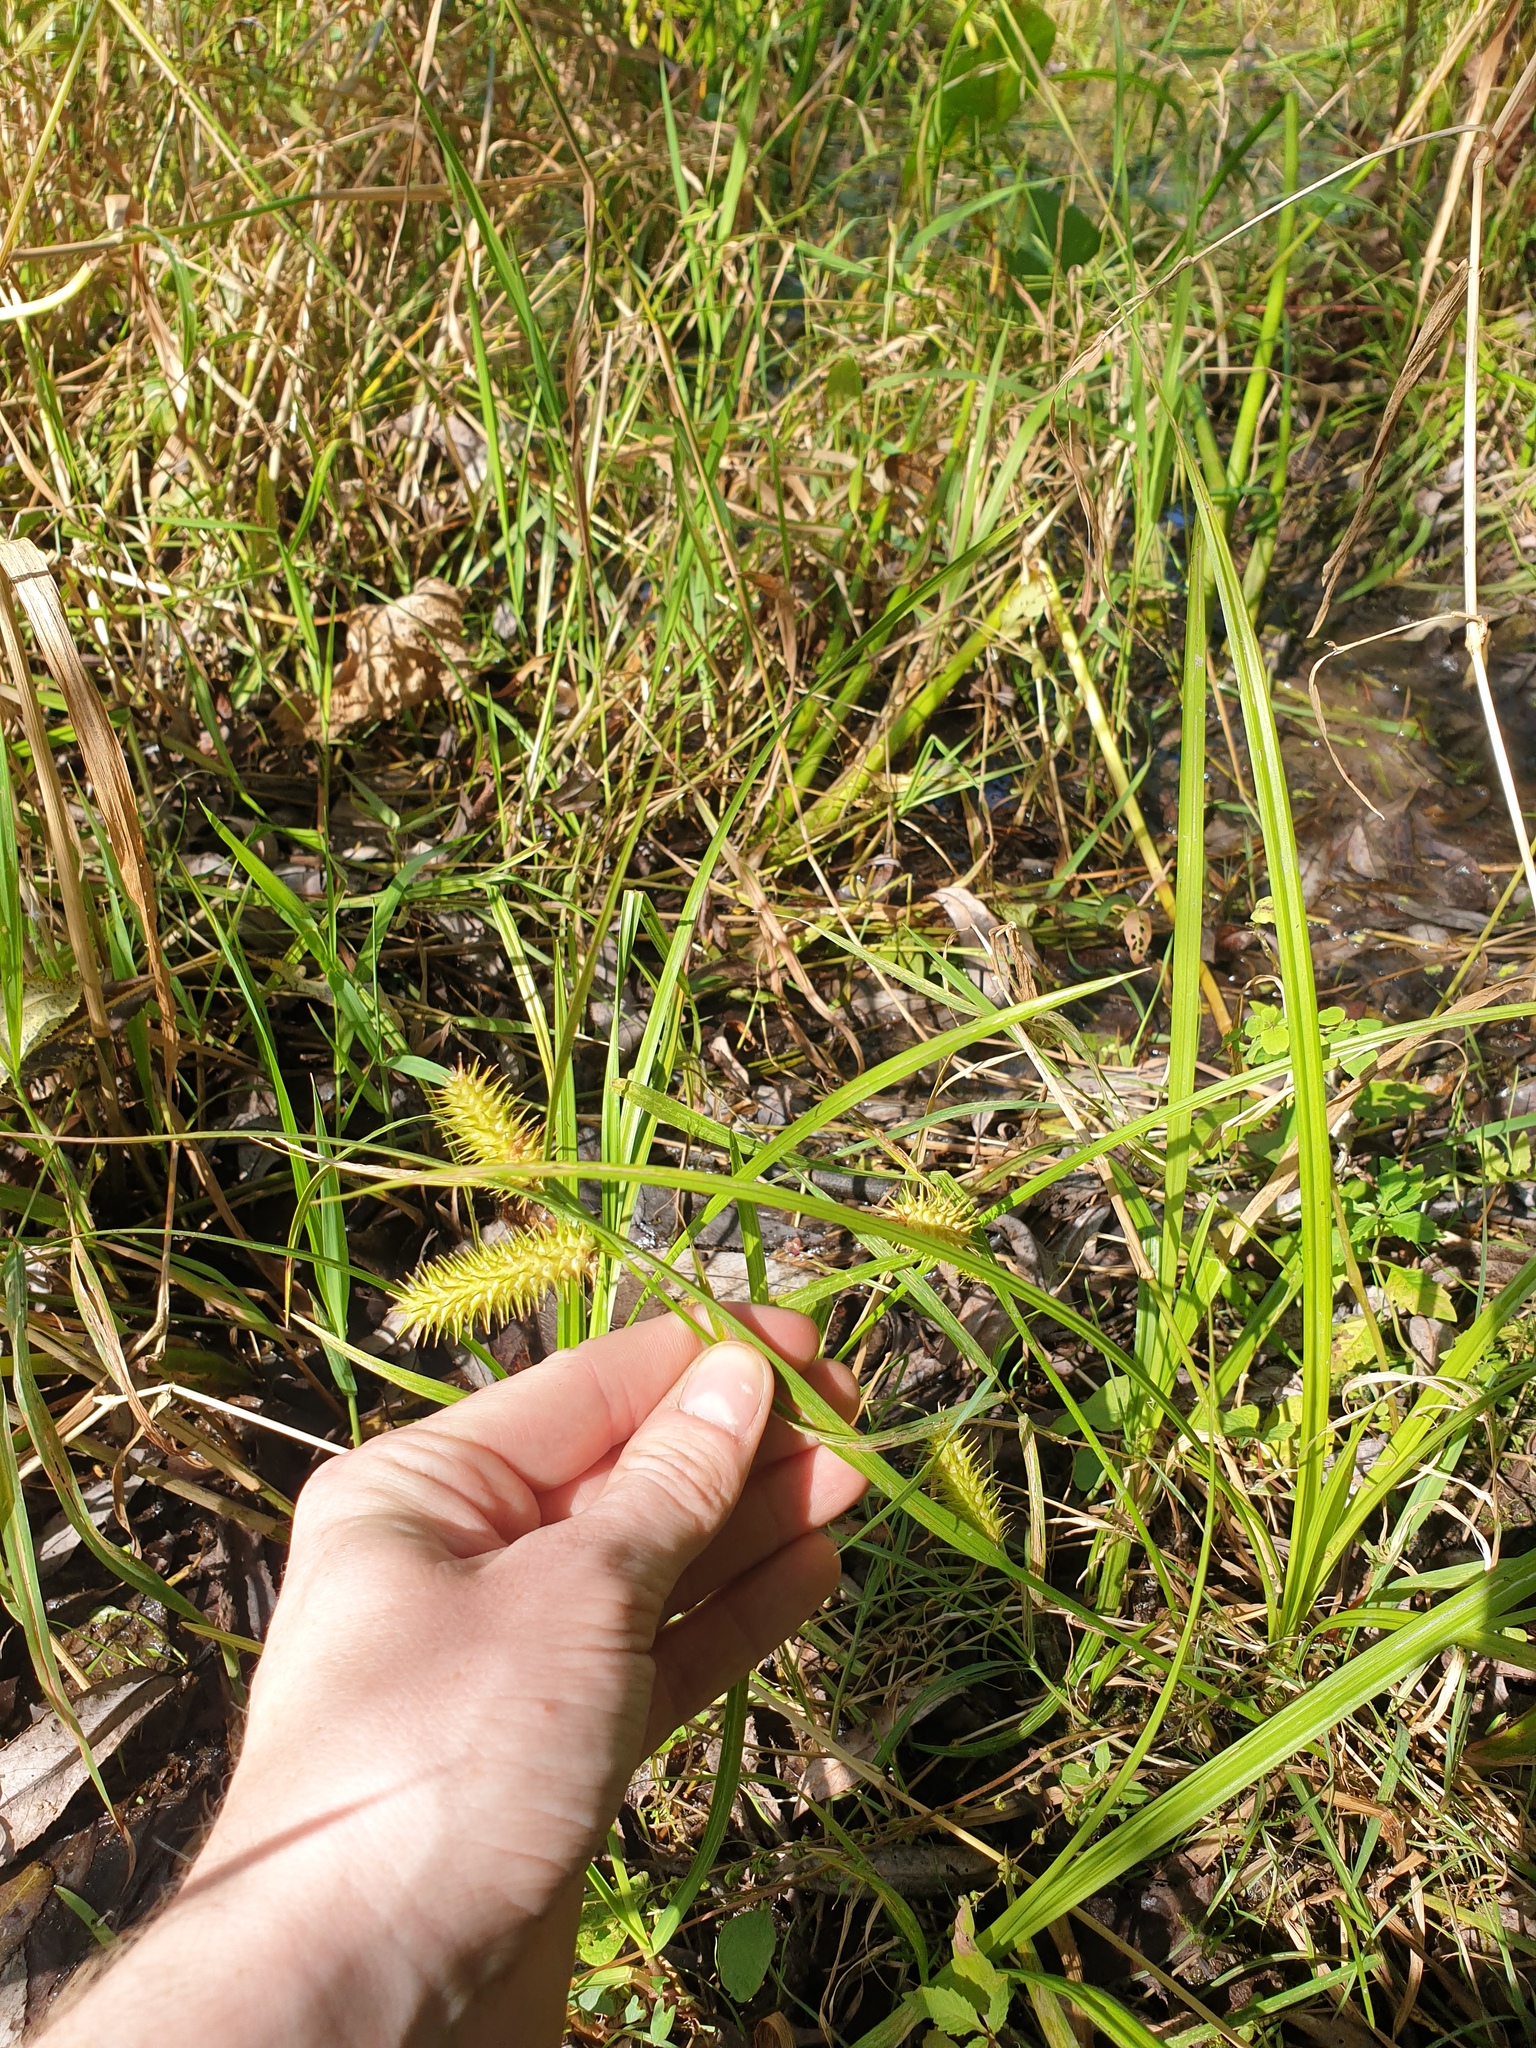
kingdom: Plantae
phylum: Tracheophyta
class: Liliopsida
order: Poales
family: Cyperaceae
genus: Carex
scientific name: Carex lurida
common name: Sallow sedge
